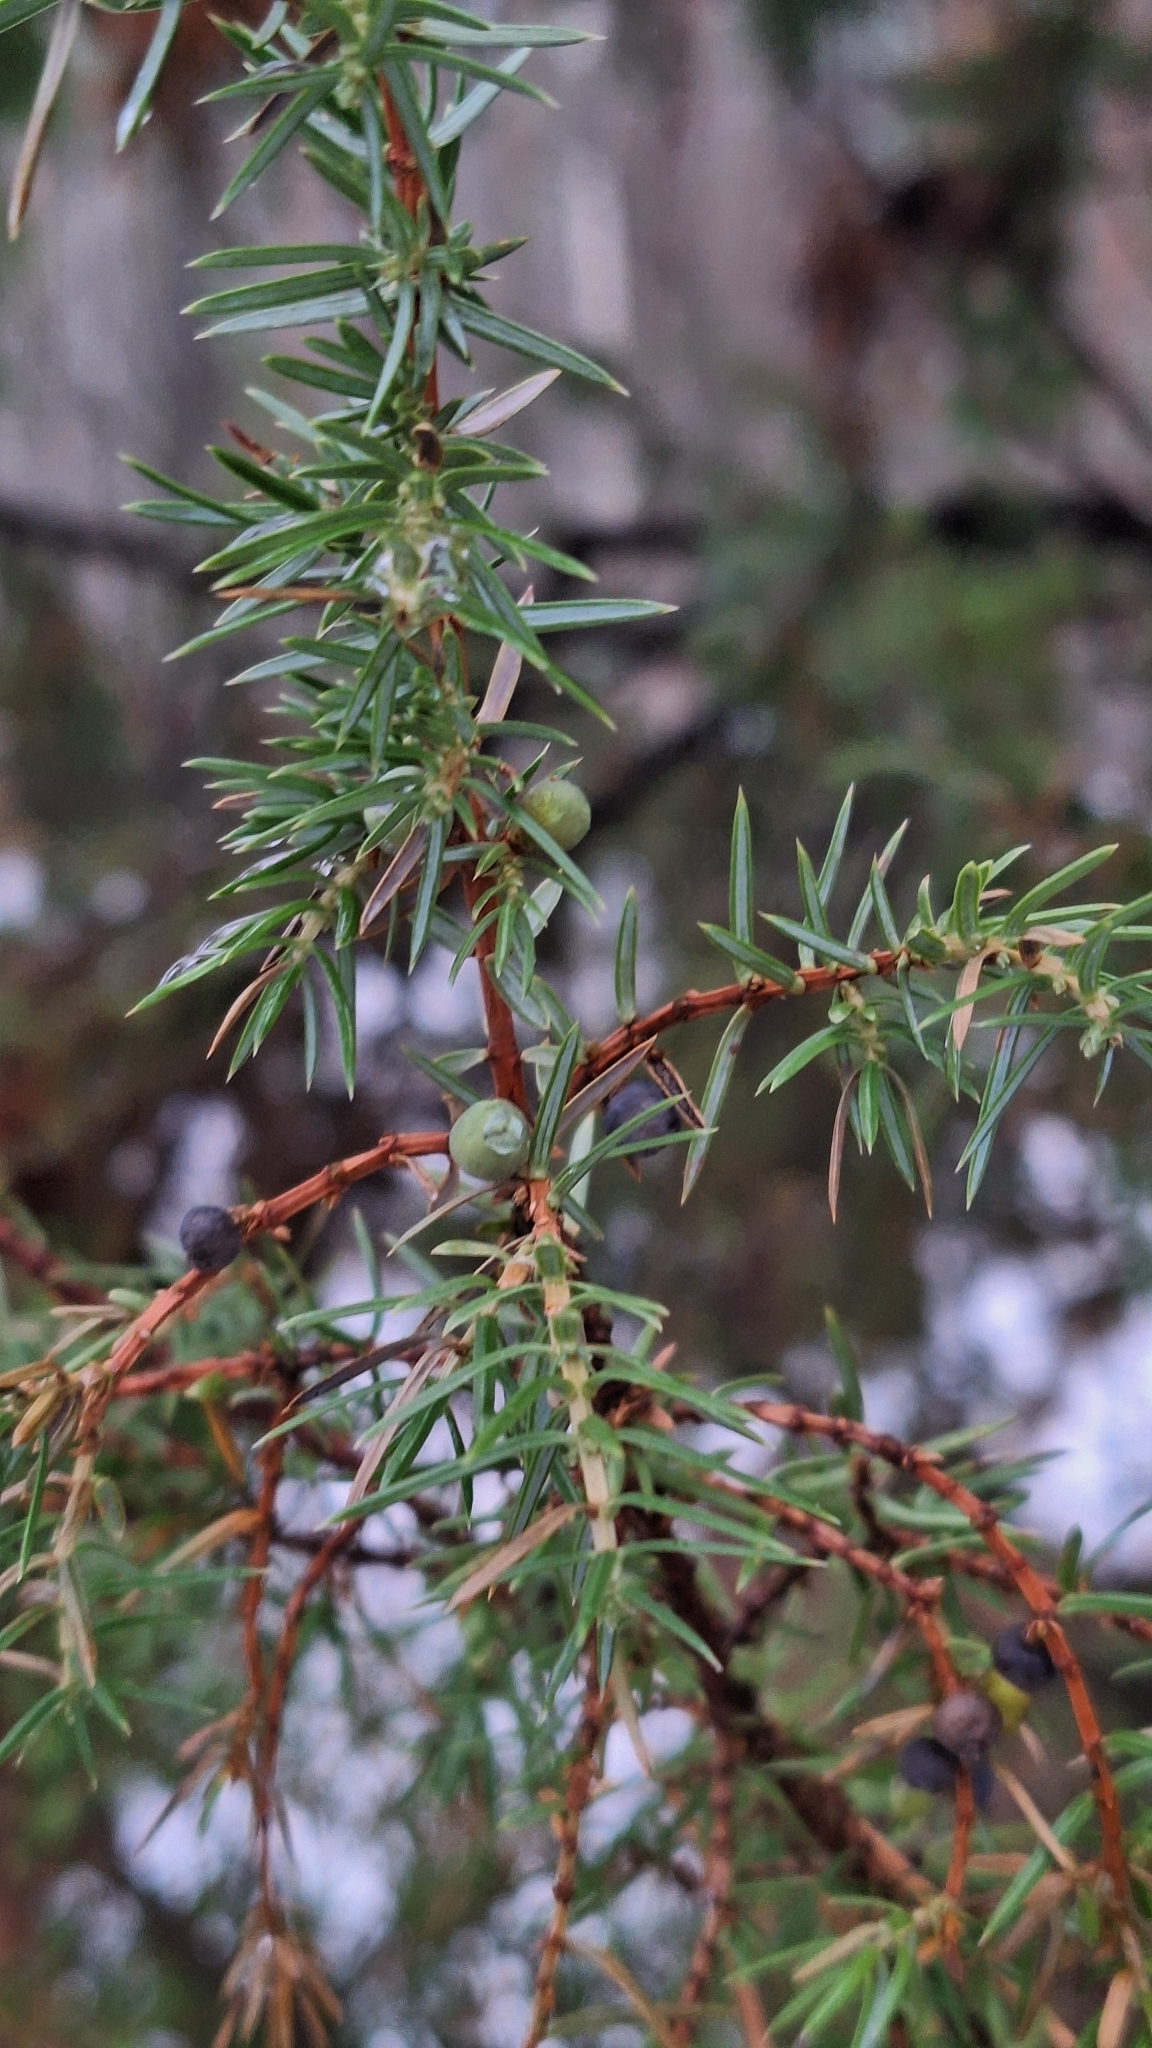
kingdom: Plantae
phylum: Tracheophyta
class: Pinopsida
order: Pinales
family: Cupressaceae
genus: Juniperus
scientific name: Juniperus communis
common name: Common juniper
